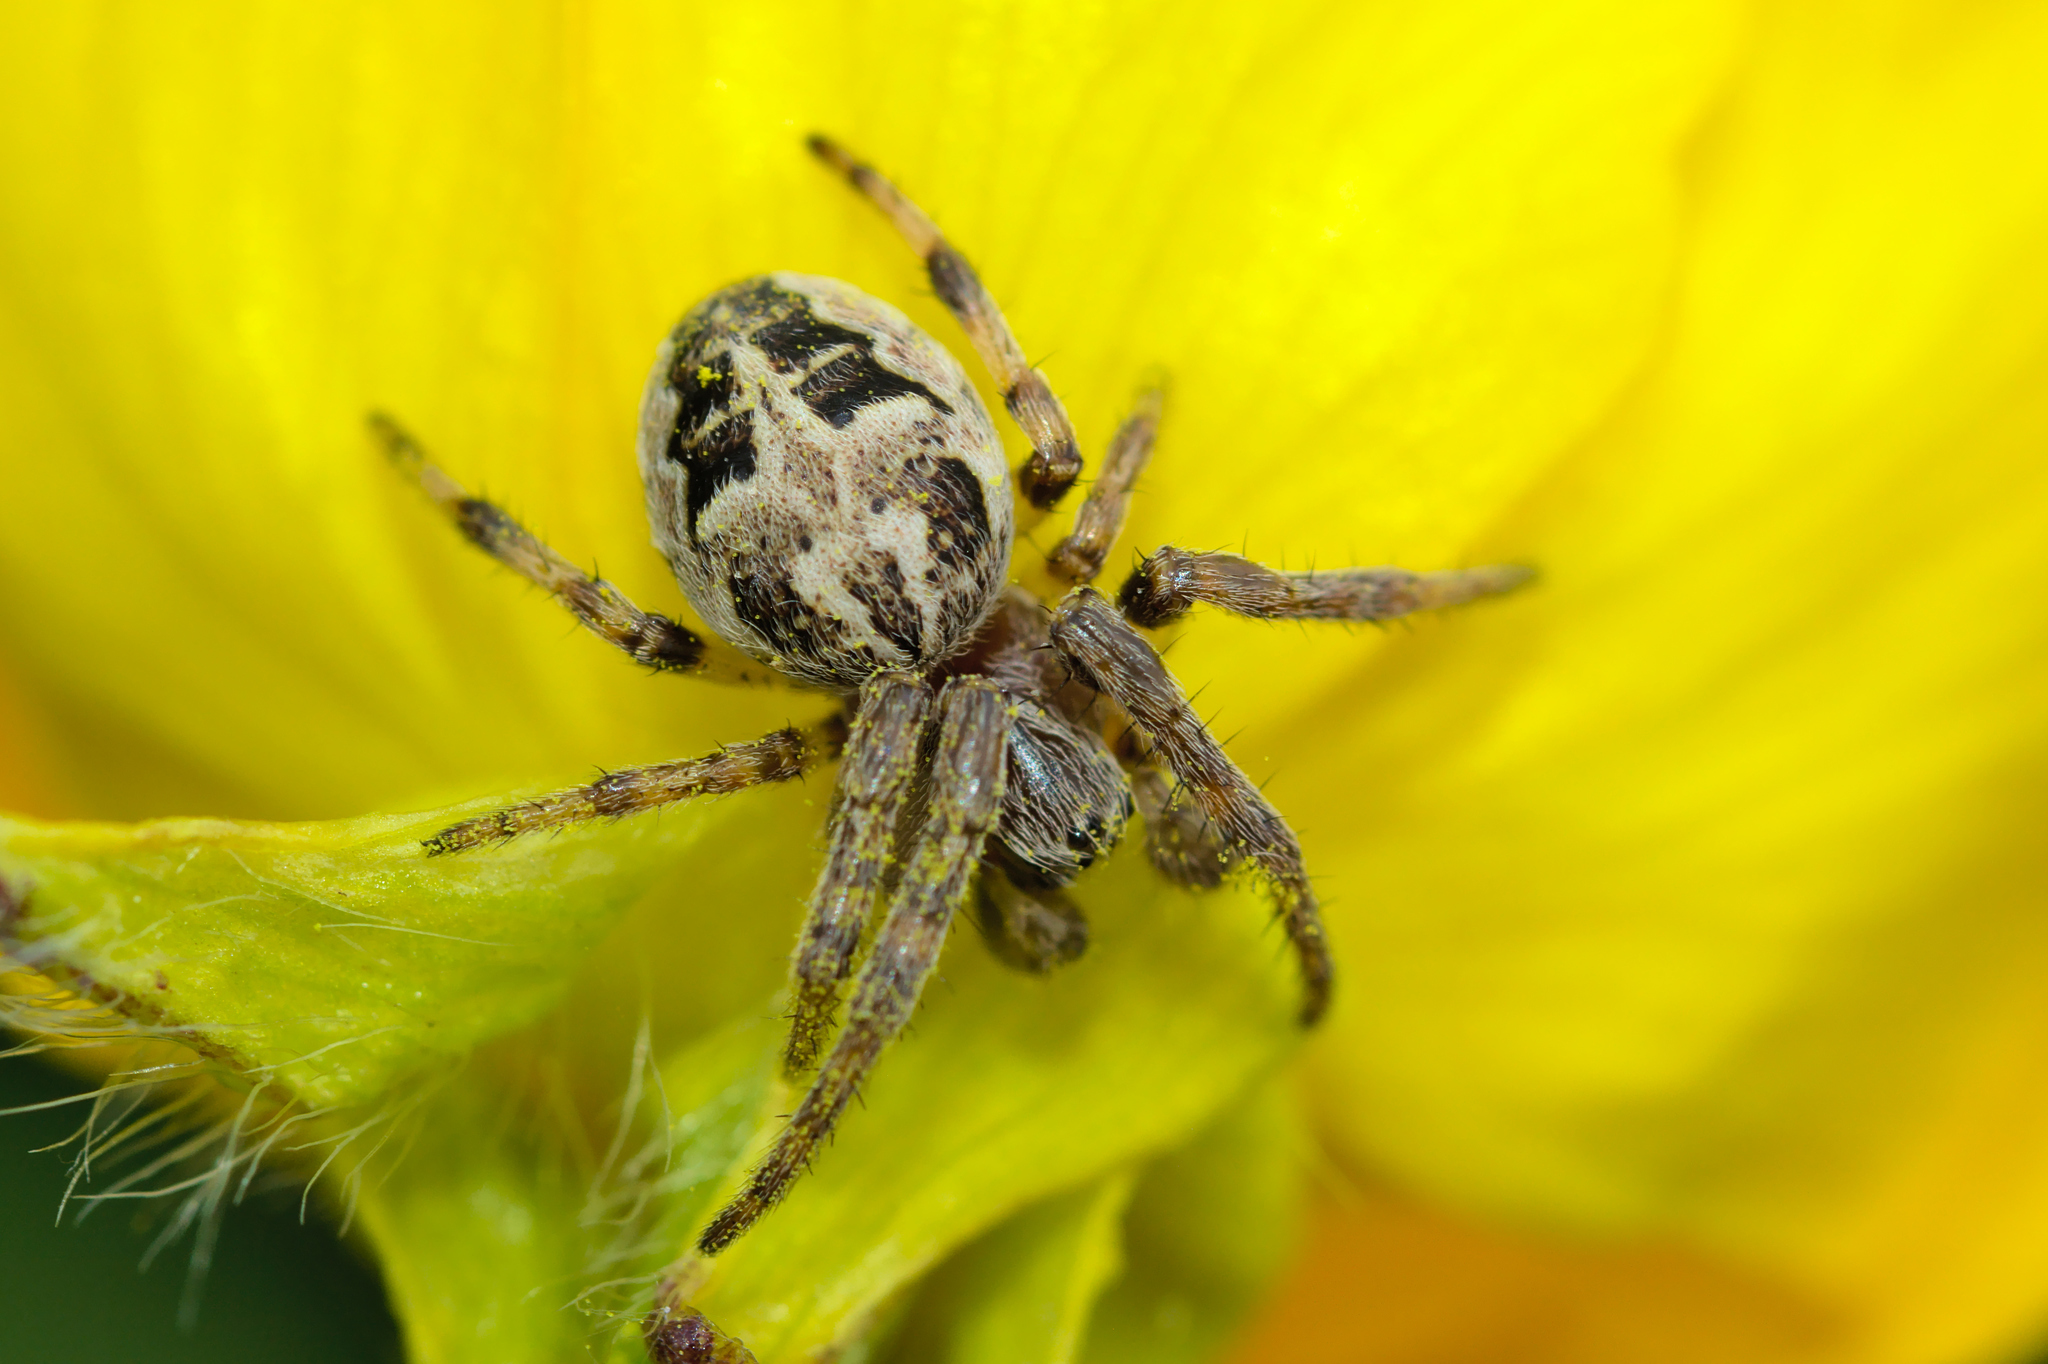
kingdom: Animalia
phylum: Arthropoda
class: Arachnida
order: Araneae
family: Araneidae
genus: Larinioides
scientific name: Larinioides cornutus
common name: Furrow orbweaver
